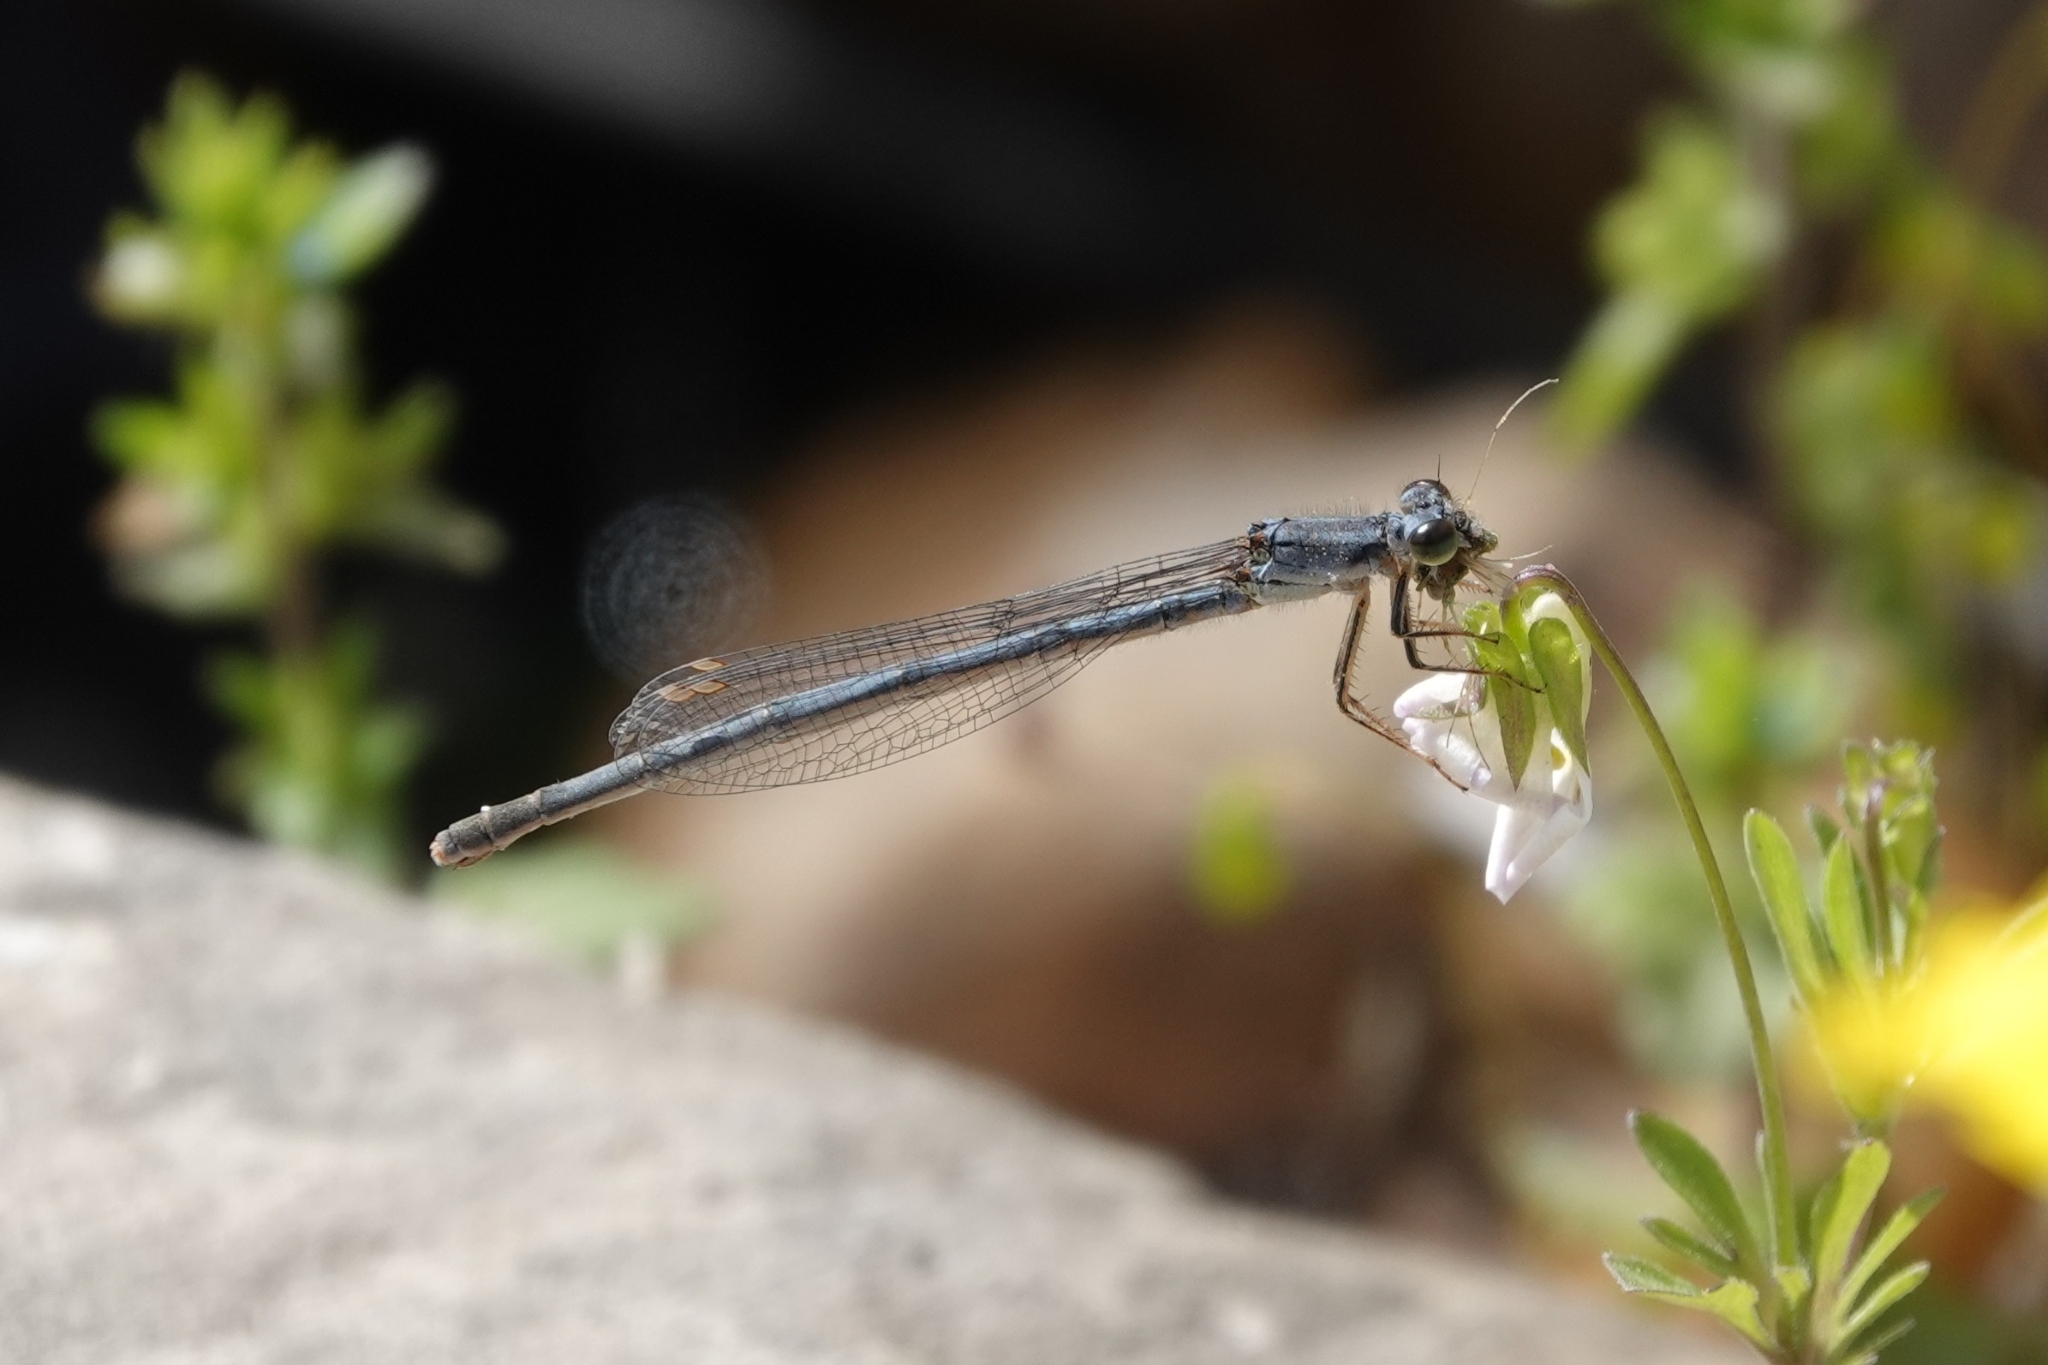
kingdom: Animalia
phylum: Arthropoda
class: Insecta
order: Odonata
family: Coenagrionidae
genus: Ischnura
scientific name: Ischnura posita
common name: Fragile forktail
